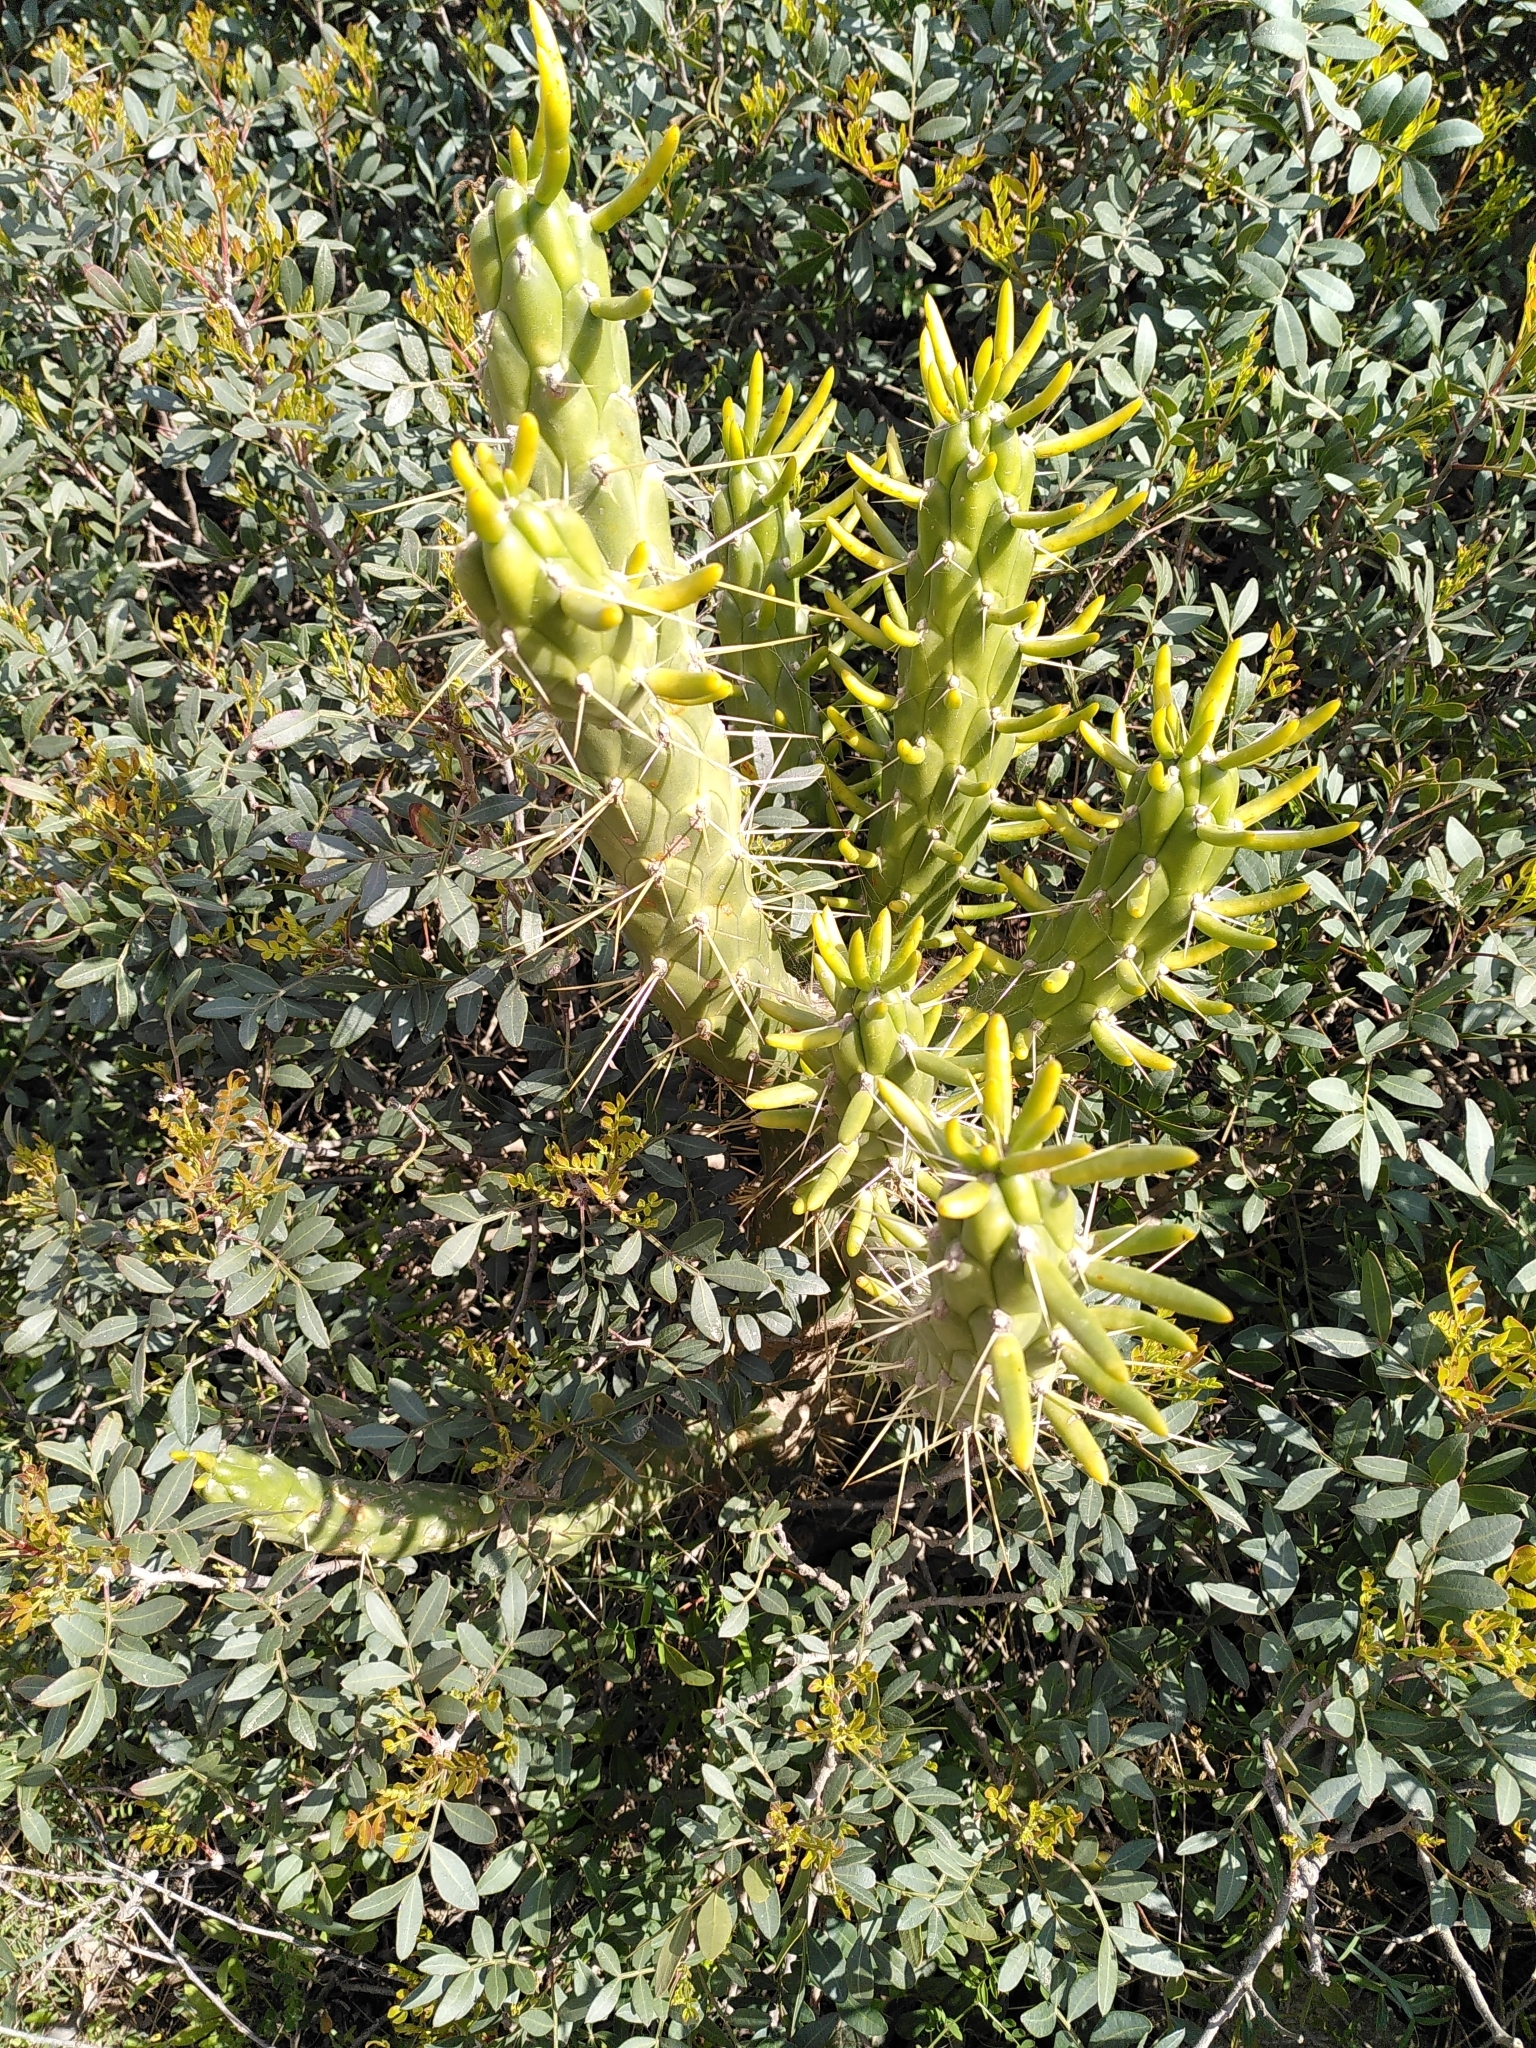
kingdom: Plantae
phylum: Tracheophyta
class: Magnoliopsida
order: Caryophyllales
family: Cactaceae
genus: Austrocylindropuntia
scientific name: Austrocylindropuntia subulata
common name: Eve's needle cactus
